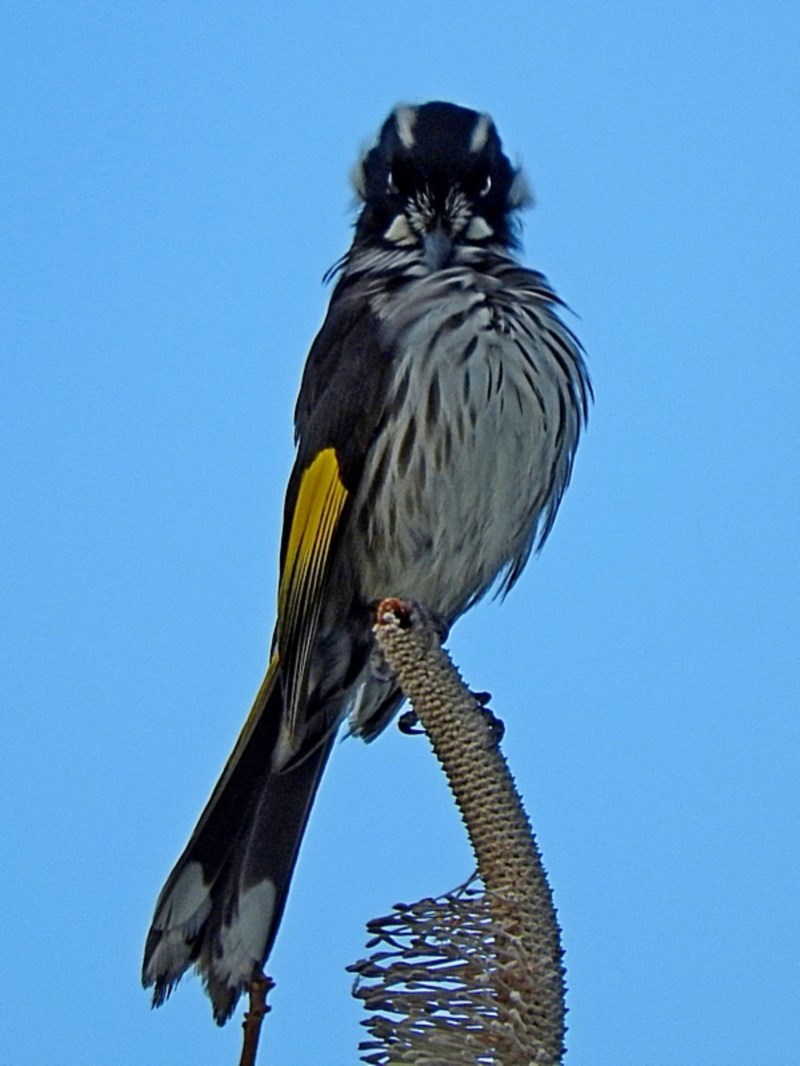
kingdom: Animalia
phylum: Chordata
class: Aves
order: Passeriformes
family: Meliphagidae
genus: Phylidonyris
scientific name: Phylidonyris novaehollandiae
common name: New holland honeyeater
